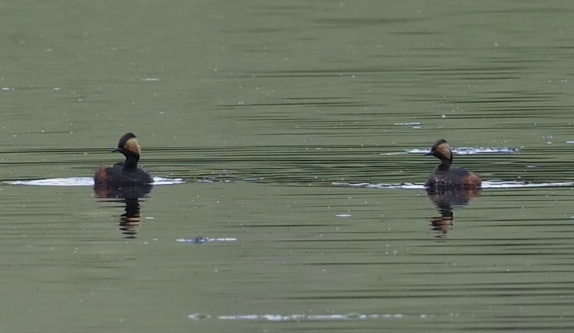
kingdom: Animalia
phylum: Chordata
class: Aves
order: Podicipediformes
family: Podicipedidae
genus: Podiceps
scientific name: Podiceps nigricollis
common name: Black-necked grebe
